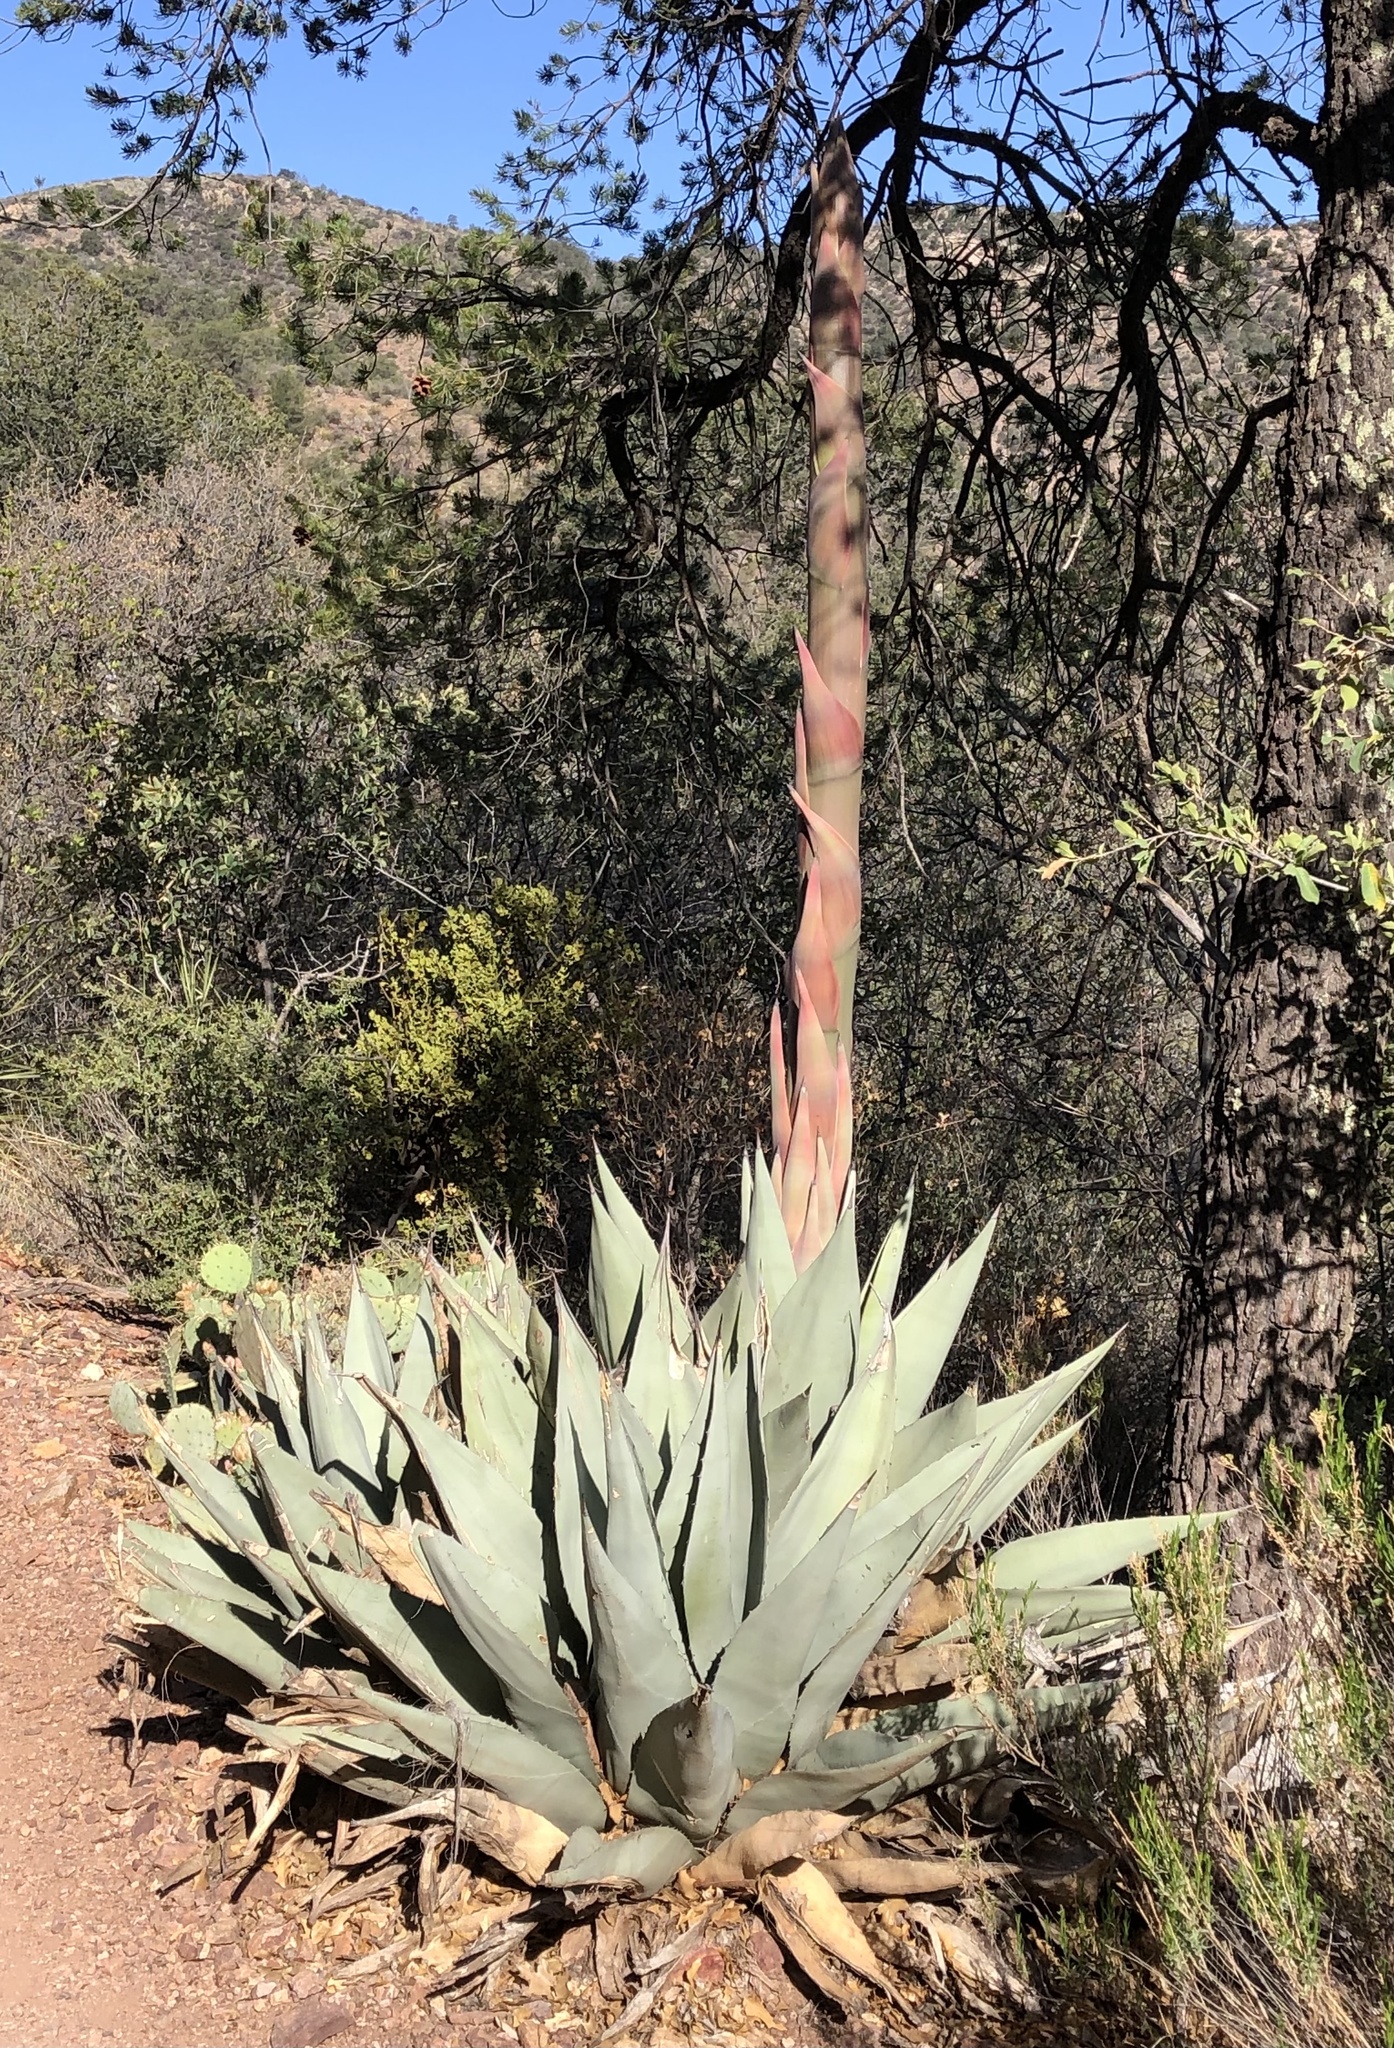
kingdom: Plantae
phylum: Tracheophyta
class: Liliopsida
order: Asparagales
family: Asparagaceae
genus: Agave
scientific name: Agave havardiana
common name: Havard agave
